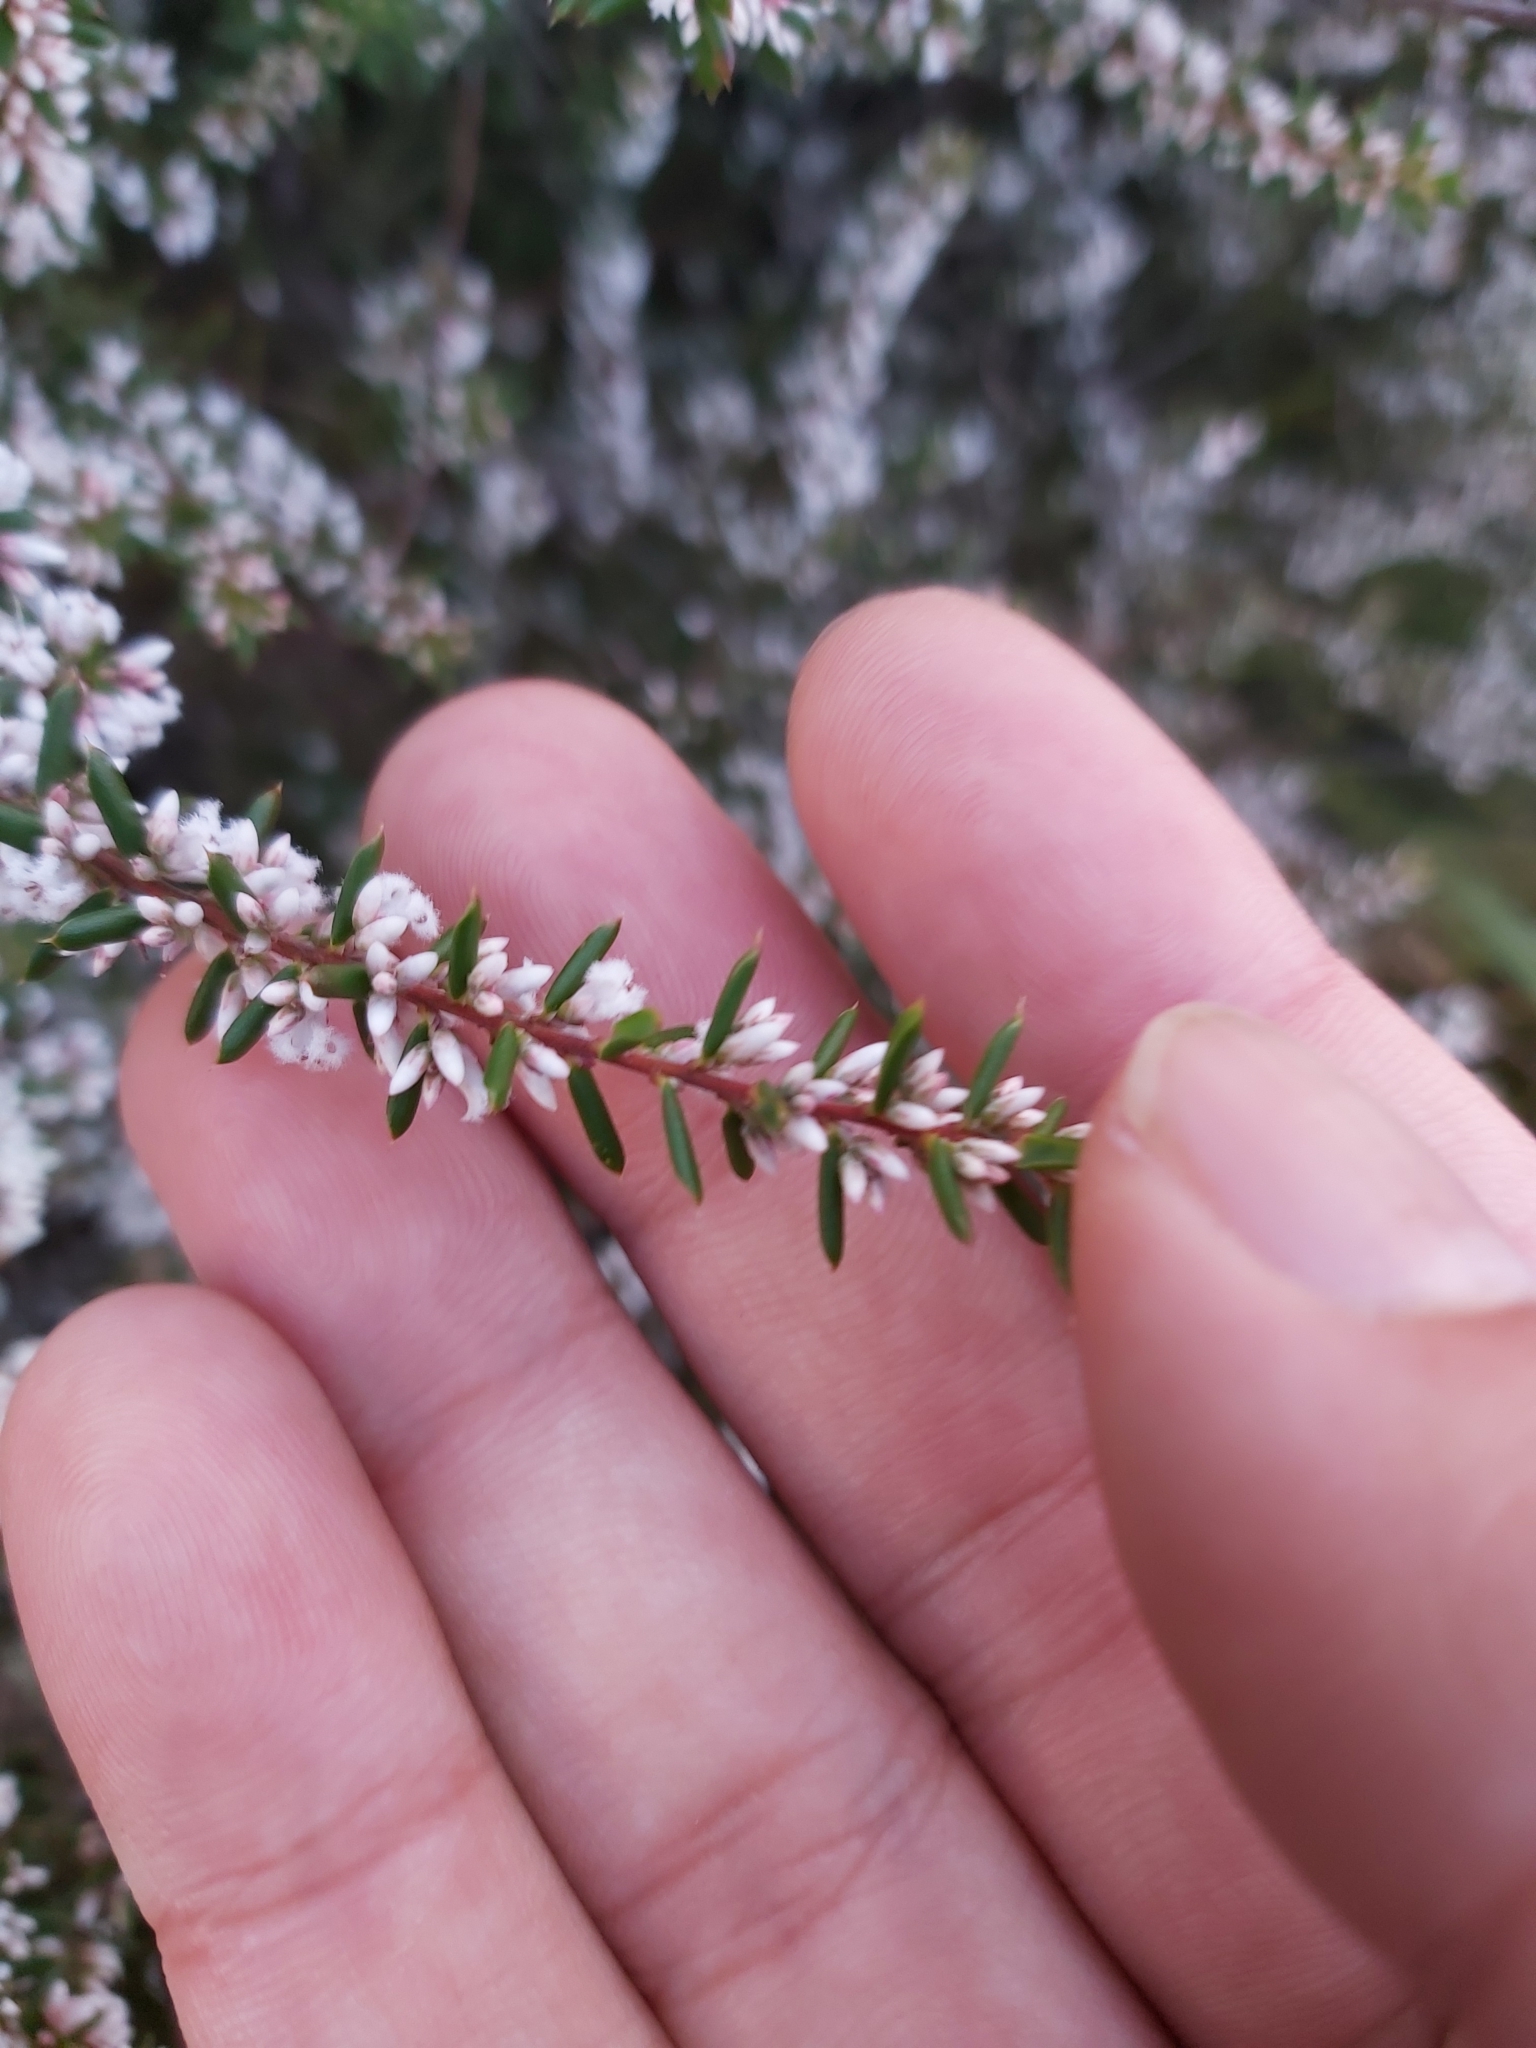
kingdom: Plantae
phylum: Tracheophyta
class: Magnoliopsida
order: Ericales
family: Ericaceae
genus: Styphelia
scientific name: Styphelia ericoides
